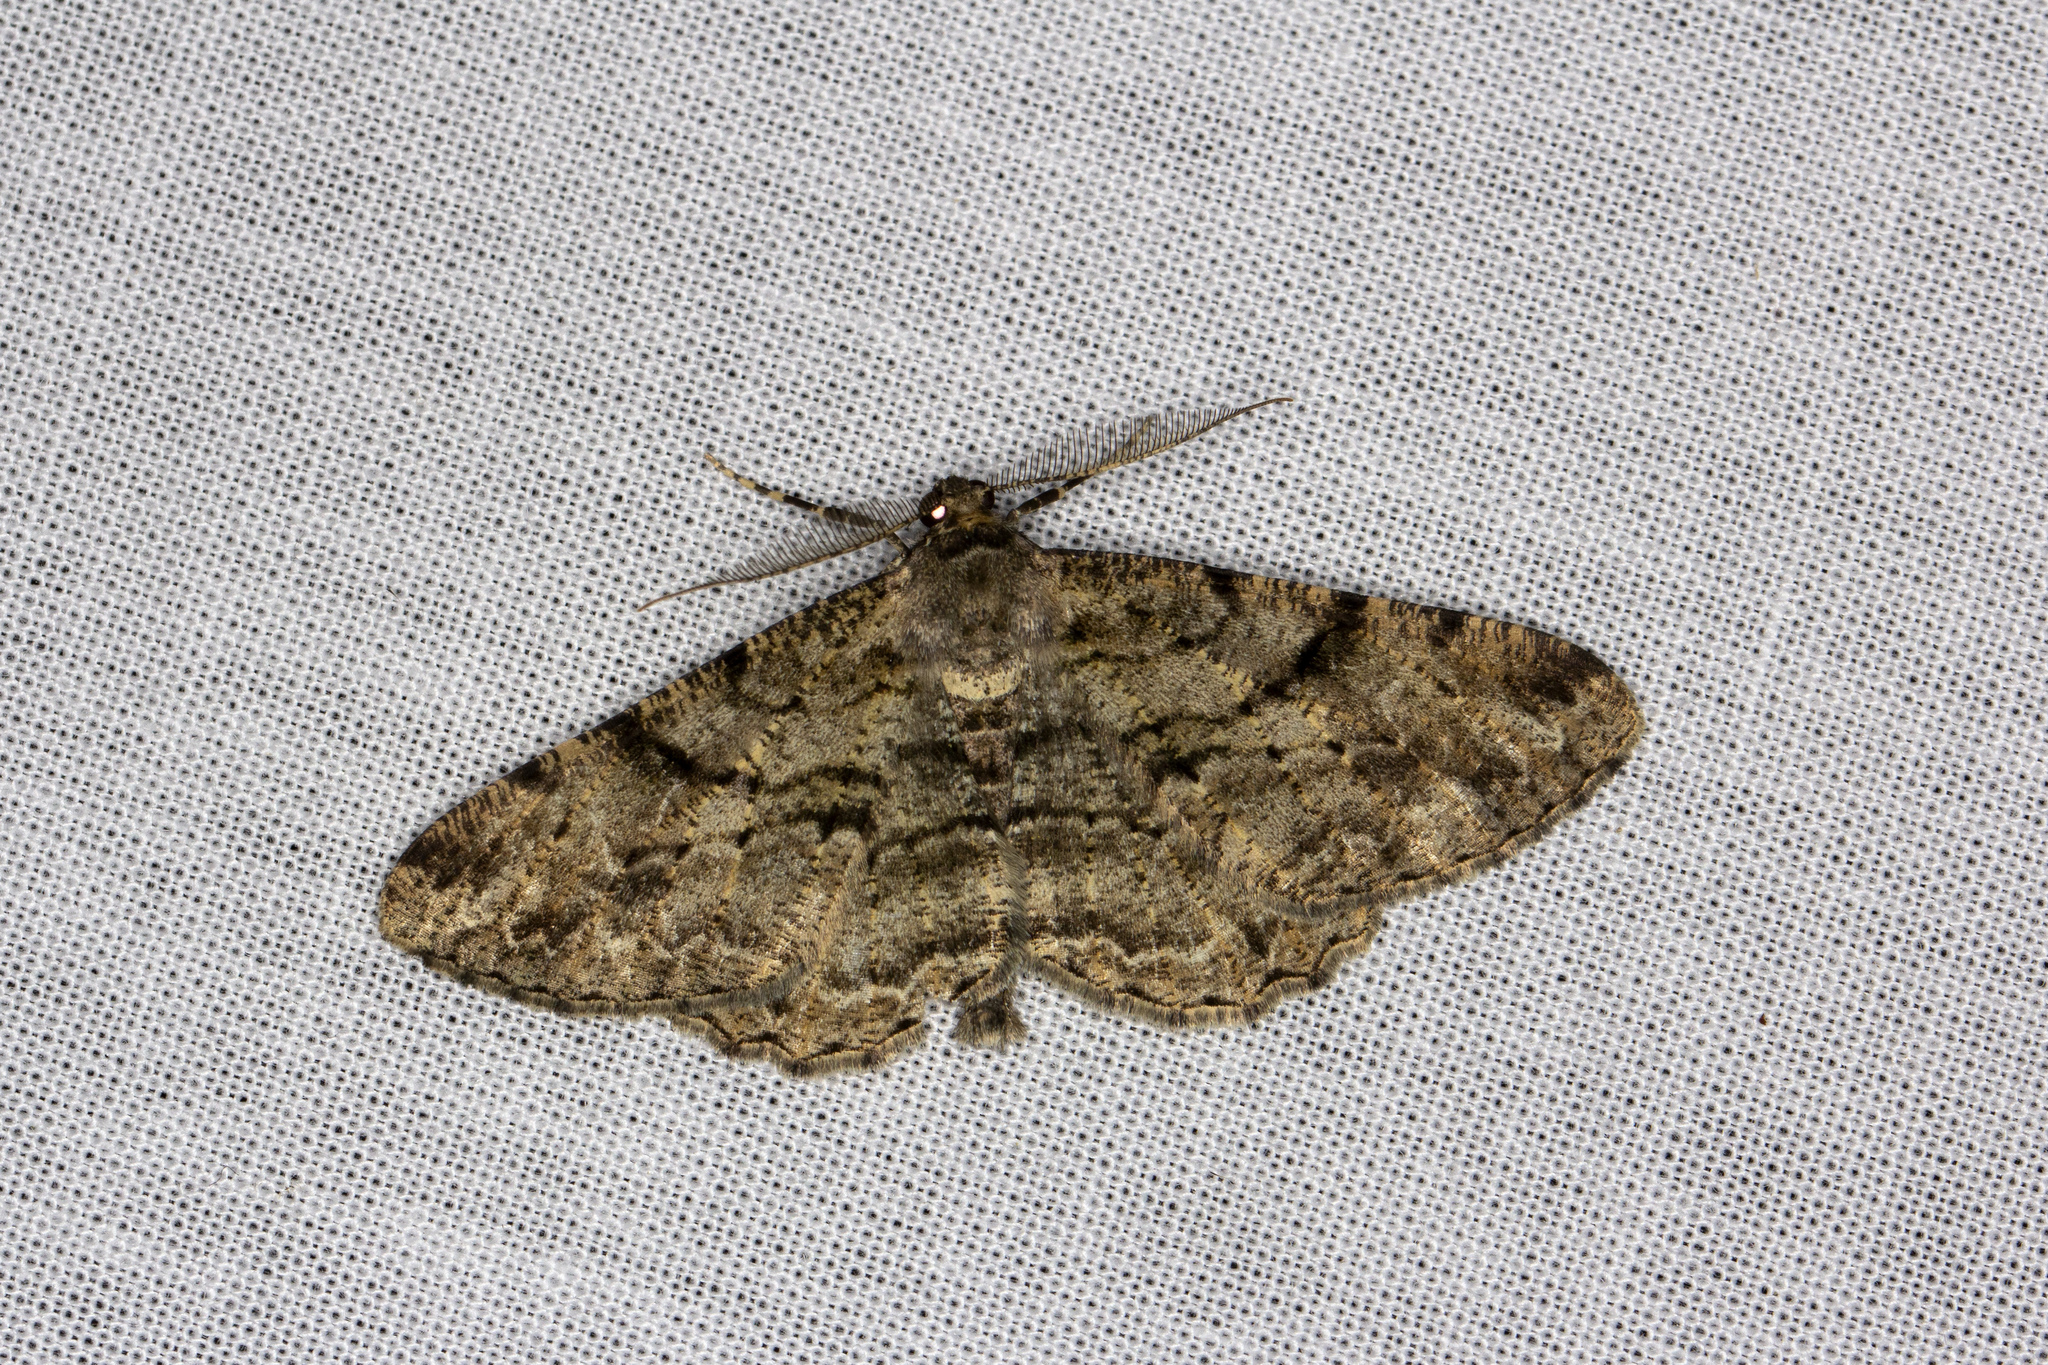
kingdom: Animalia
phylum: Arthropoda
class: Insecta
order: Lepidoptera
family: Geometridae
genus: Peribatodes
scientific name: Peribatodes rhomboidaria
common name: Willow beauty
